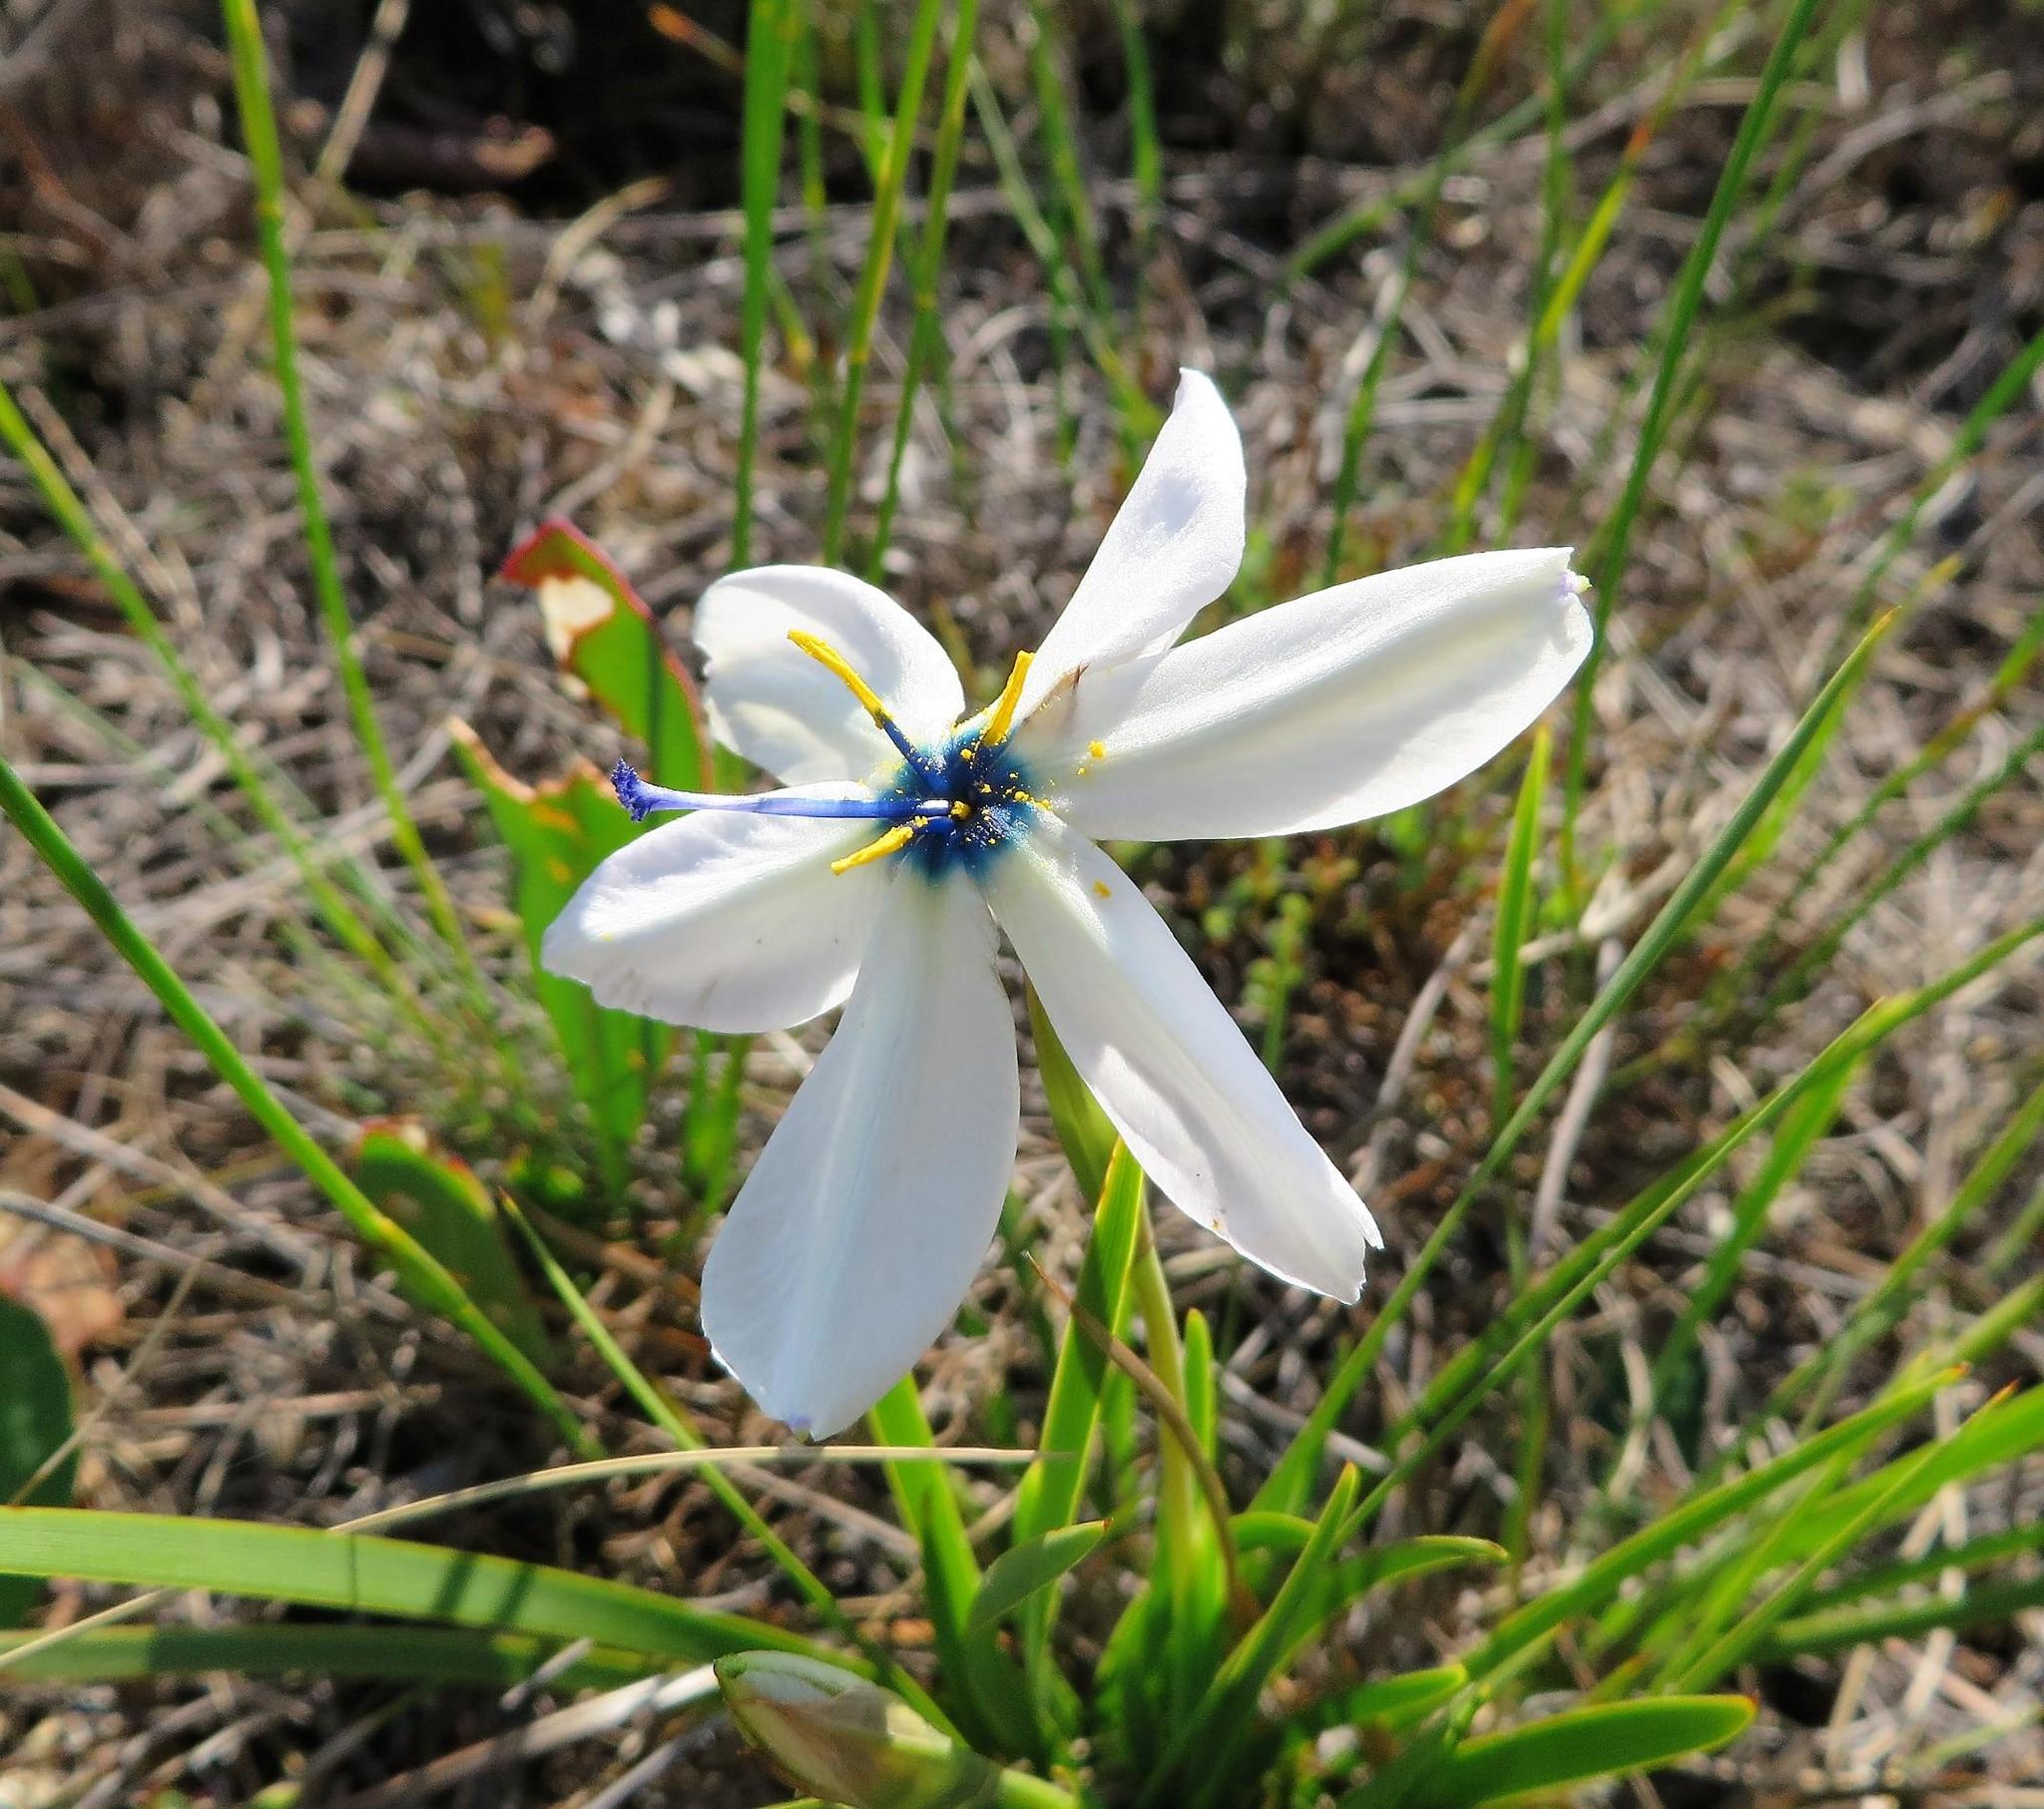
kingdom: Plantae
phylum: Tracheophyta
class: Liliopsida
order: Asparagales
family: Iridaceae
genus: Aristea
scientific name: Aristea cantharophila
